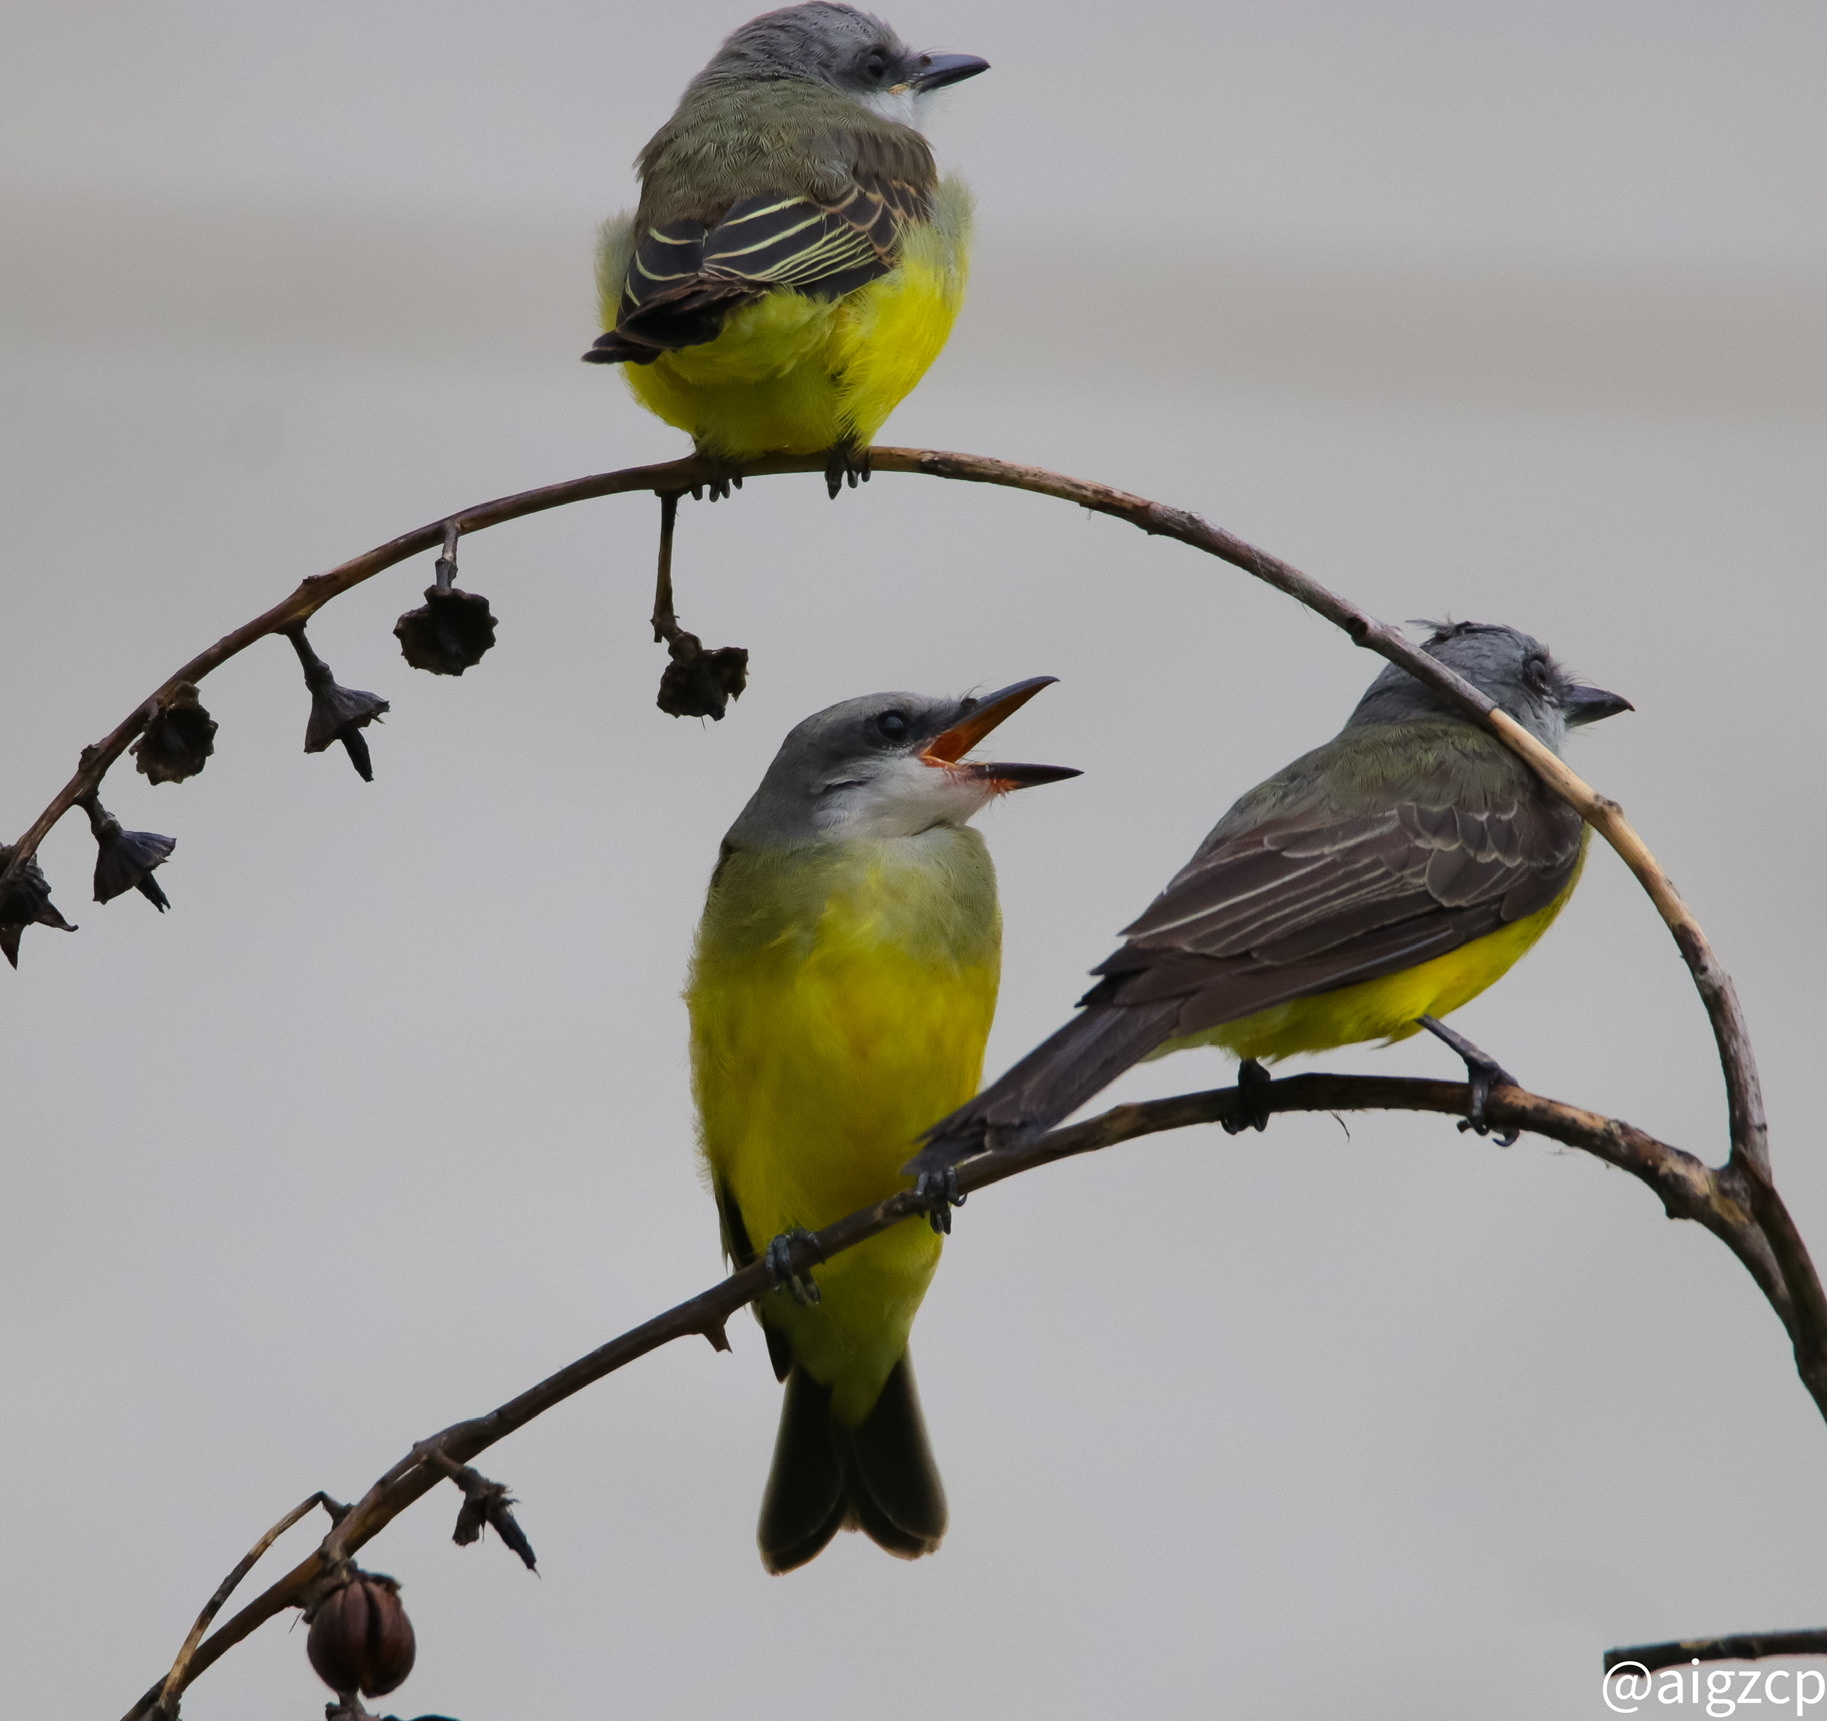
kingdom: Animalia
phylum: Chordata
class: Aves
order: Passeriformes
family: Tyrannidae
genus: Tyrannus
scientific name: Tyrannus melancholicus
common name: Tropical kingbird
